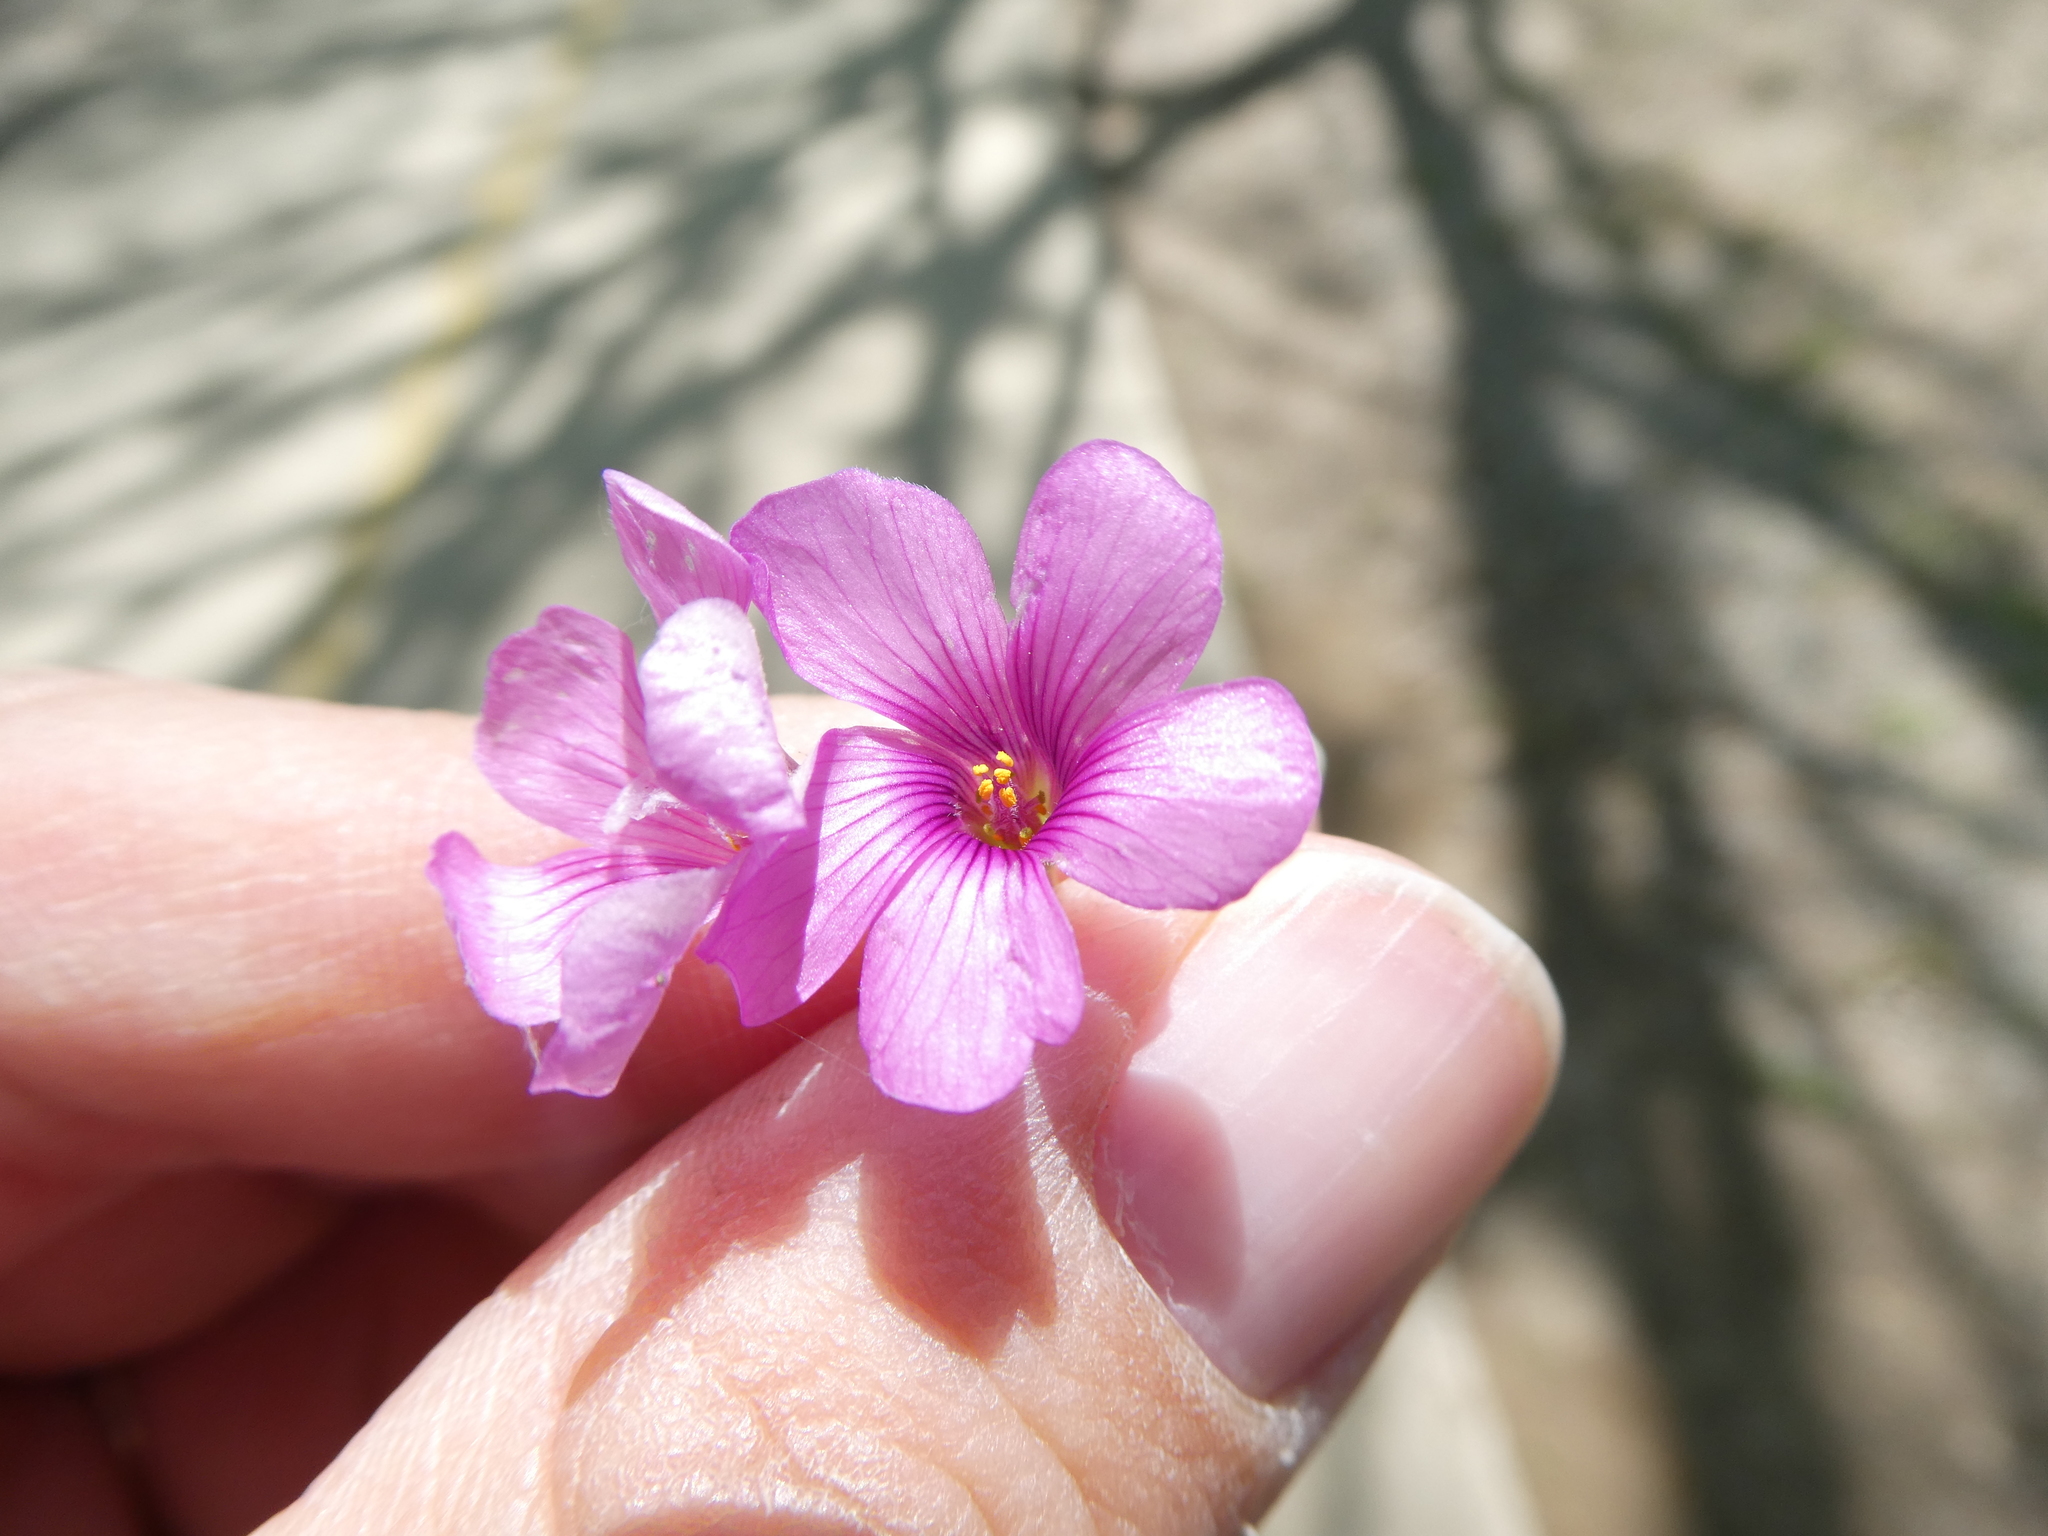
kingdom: Plantae
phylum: Tracheophyta
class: Magnoliopsida
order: Oxalidales
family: Oxalidaceae
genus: Oxalis
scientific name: Oxalis articulata
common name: Pink-sorrel
